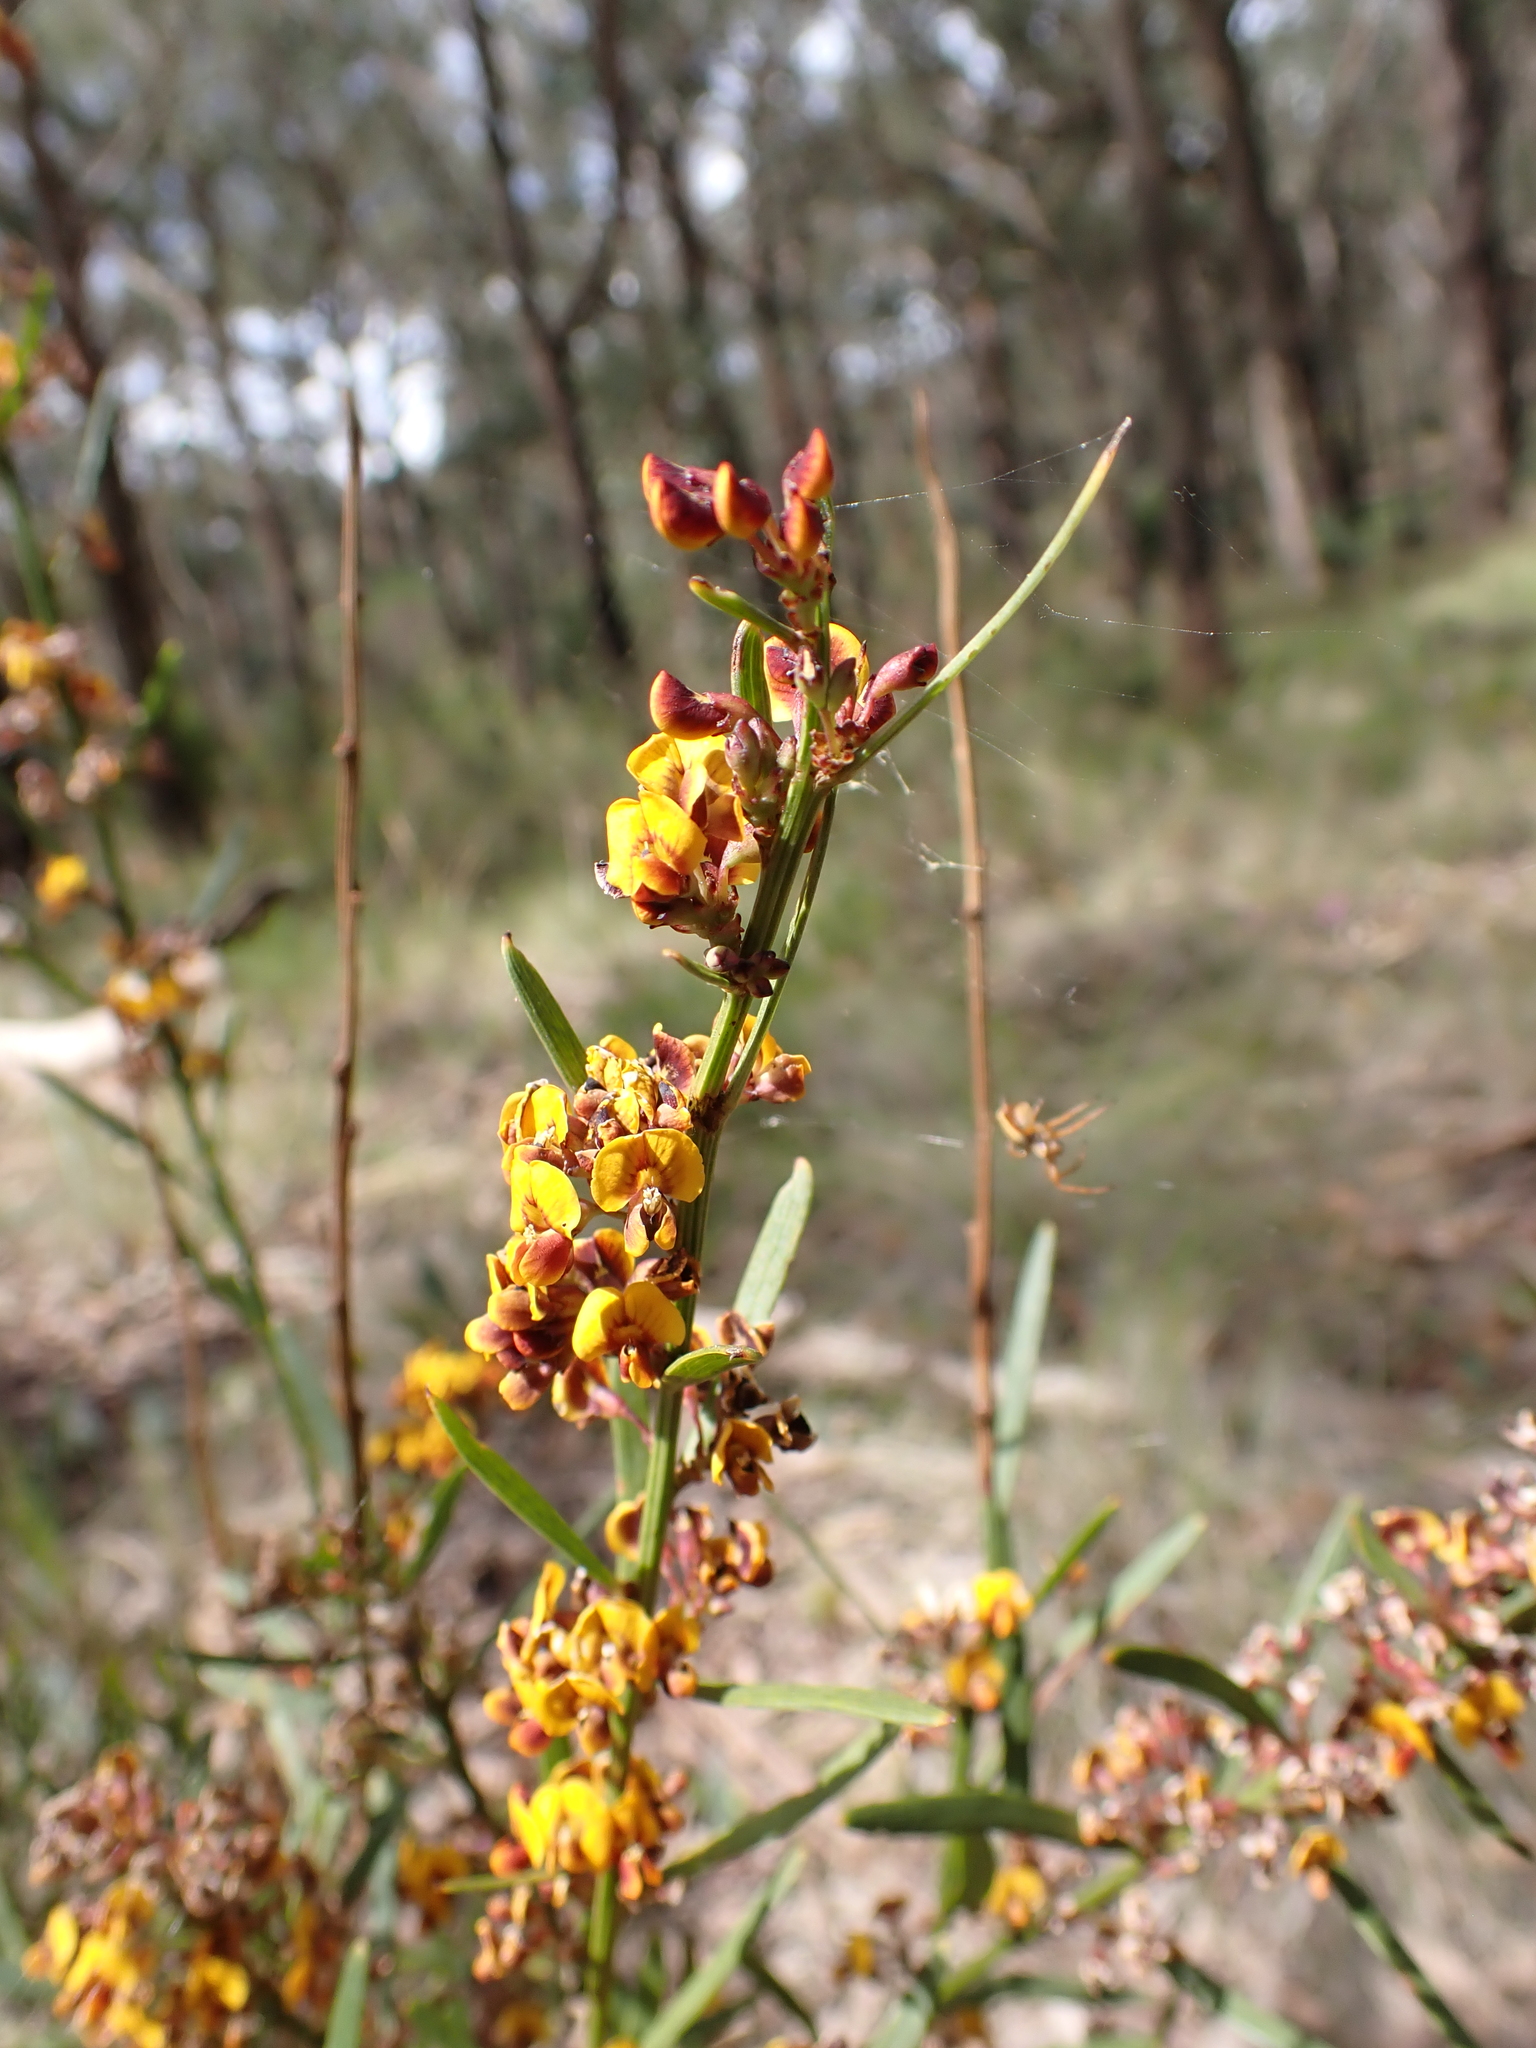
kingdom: Plantae
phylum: Tracheophyta
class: Magnoliopsida
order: Fabales
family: Fabaceae
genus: Daviesia
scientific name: Daviesia leptophylla
